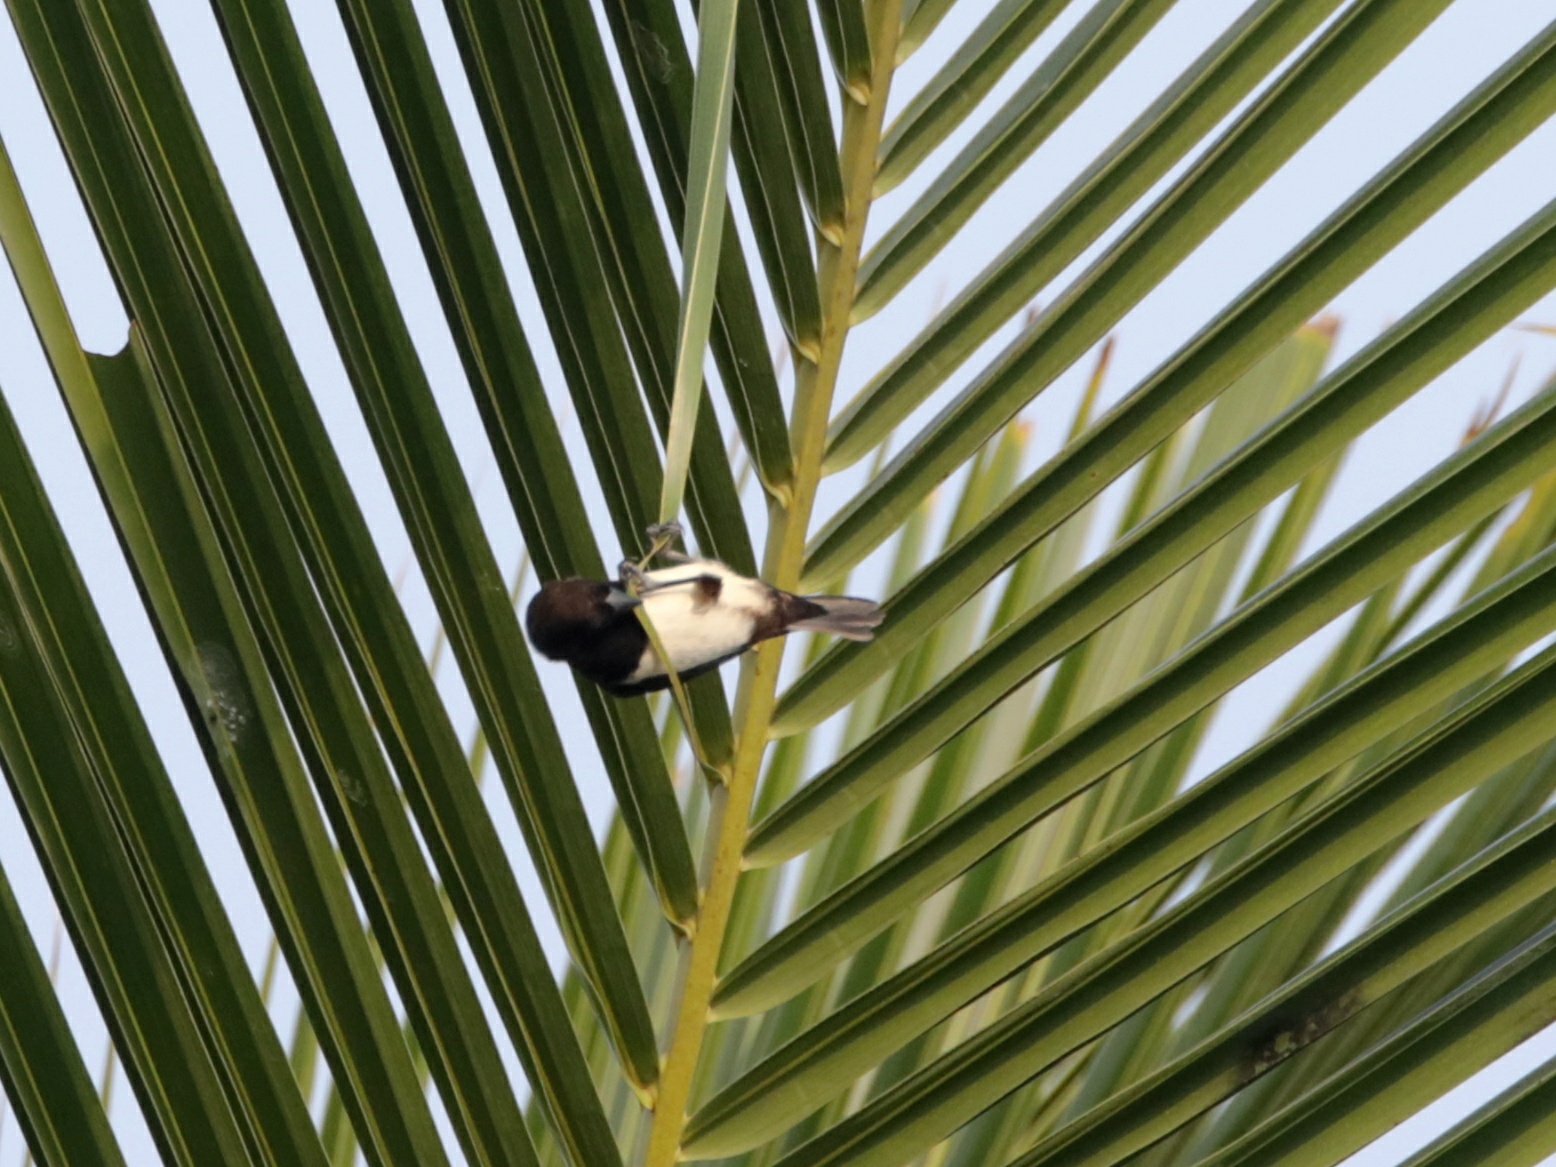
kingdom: Animalia
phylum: Chordata
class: Aves
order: Passeriformes
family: Estrildidae
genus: Lonchura
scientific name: Lonchura striata
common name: White-rumped munia
